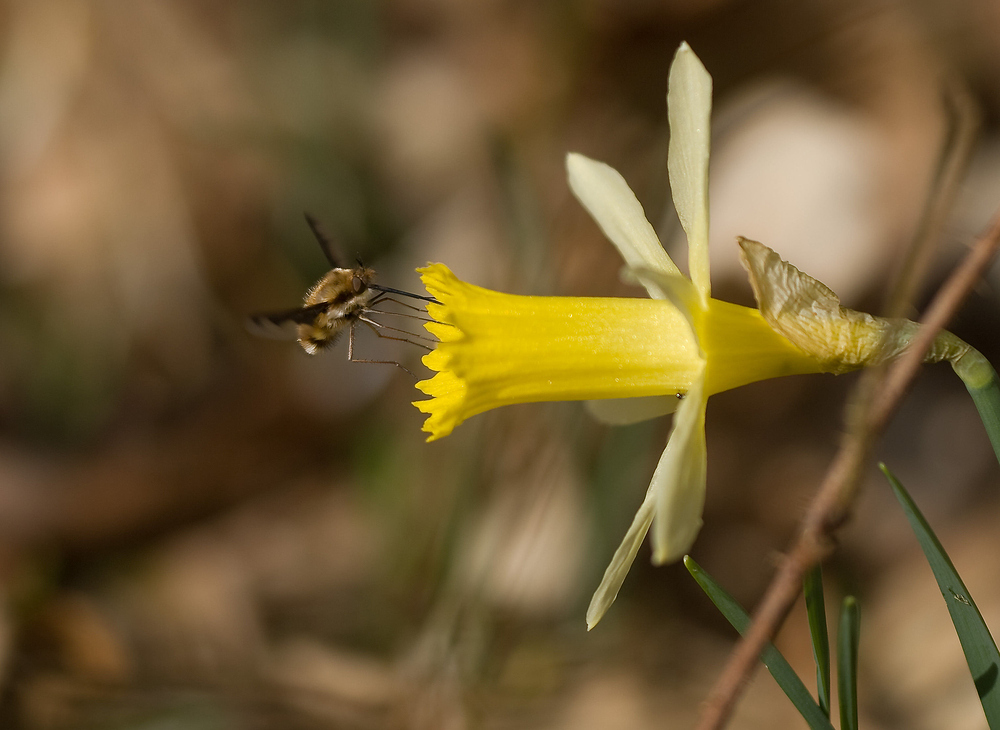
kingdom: Animalia
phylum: Arthropoda
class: Insecta
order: Diptera
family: Bombyliidae
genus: Bombylius
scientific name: Bombylius major
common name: Bee fly
